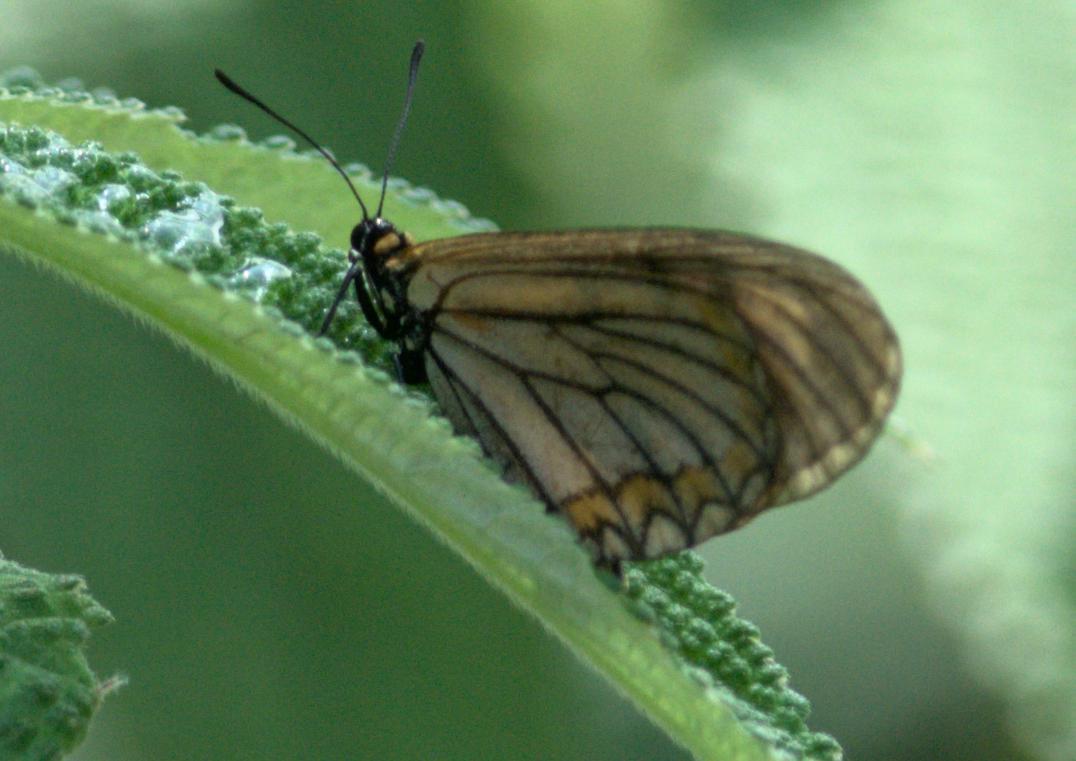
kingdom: Animalia
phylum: Arthropoda
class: Insecta
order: Lepidoptera
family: Nymphalidae
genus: Acraea
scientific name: Acraea Telchinia issoria
